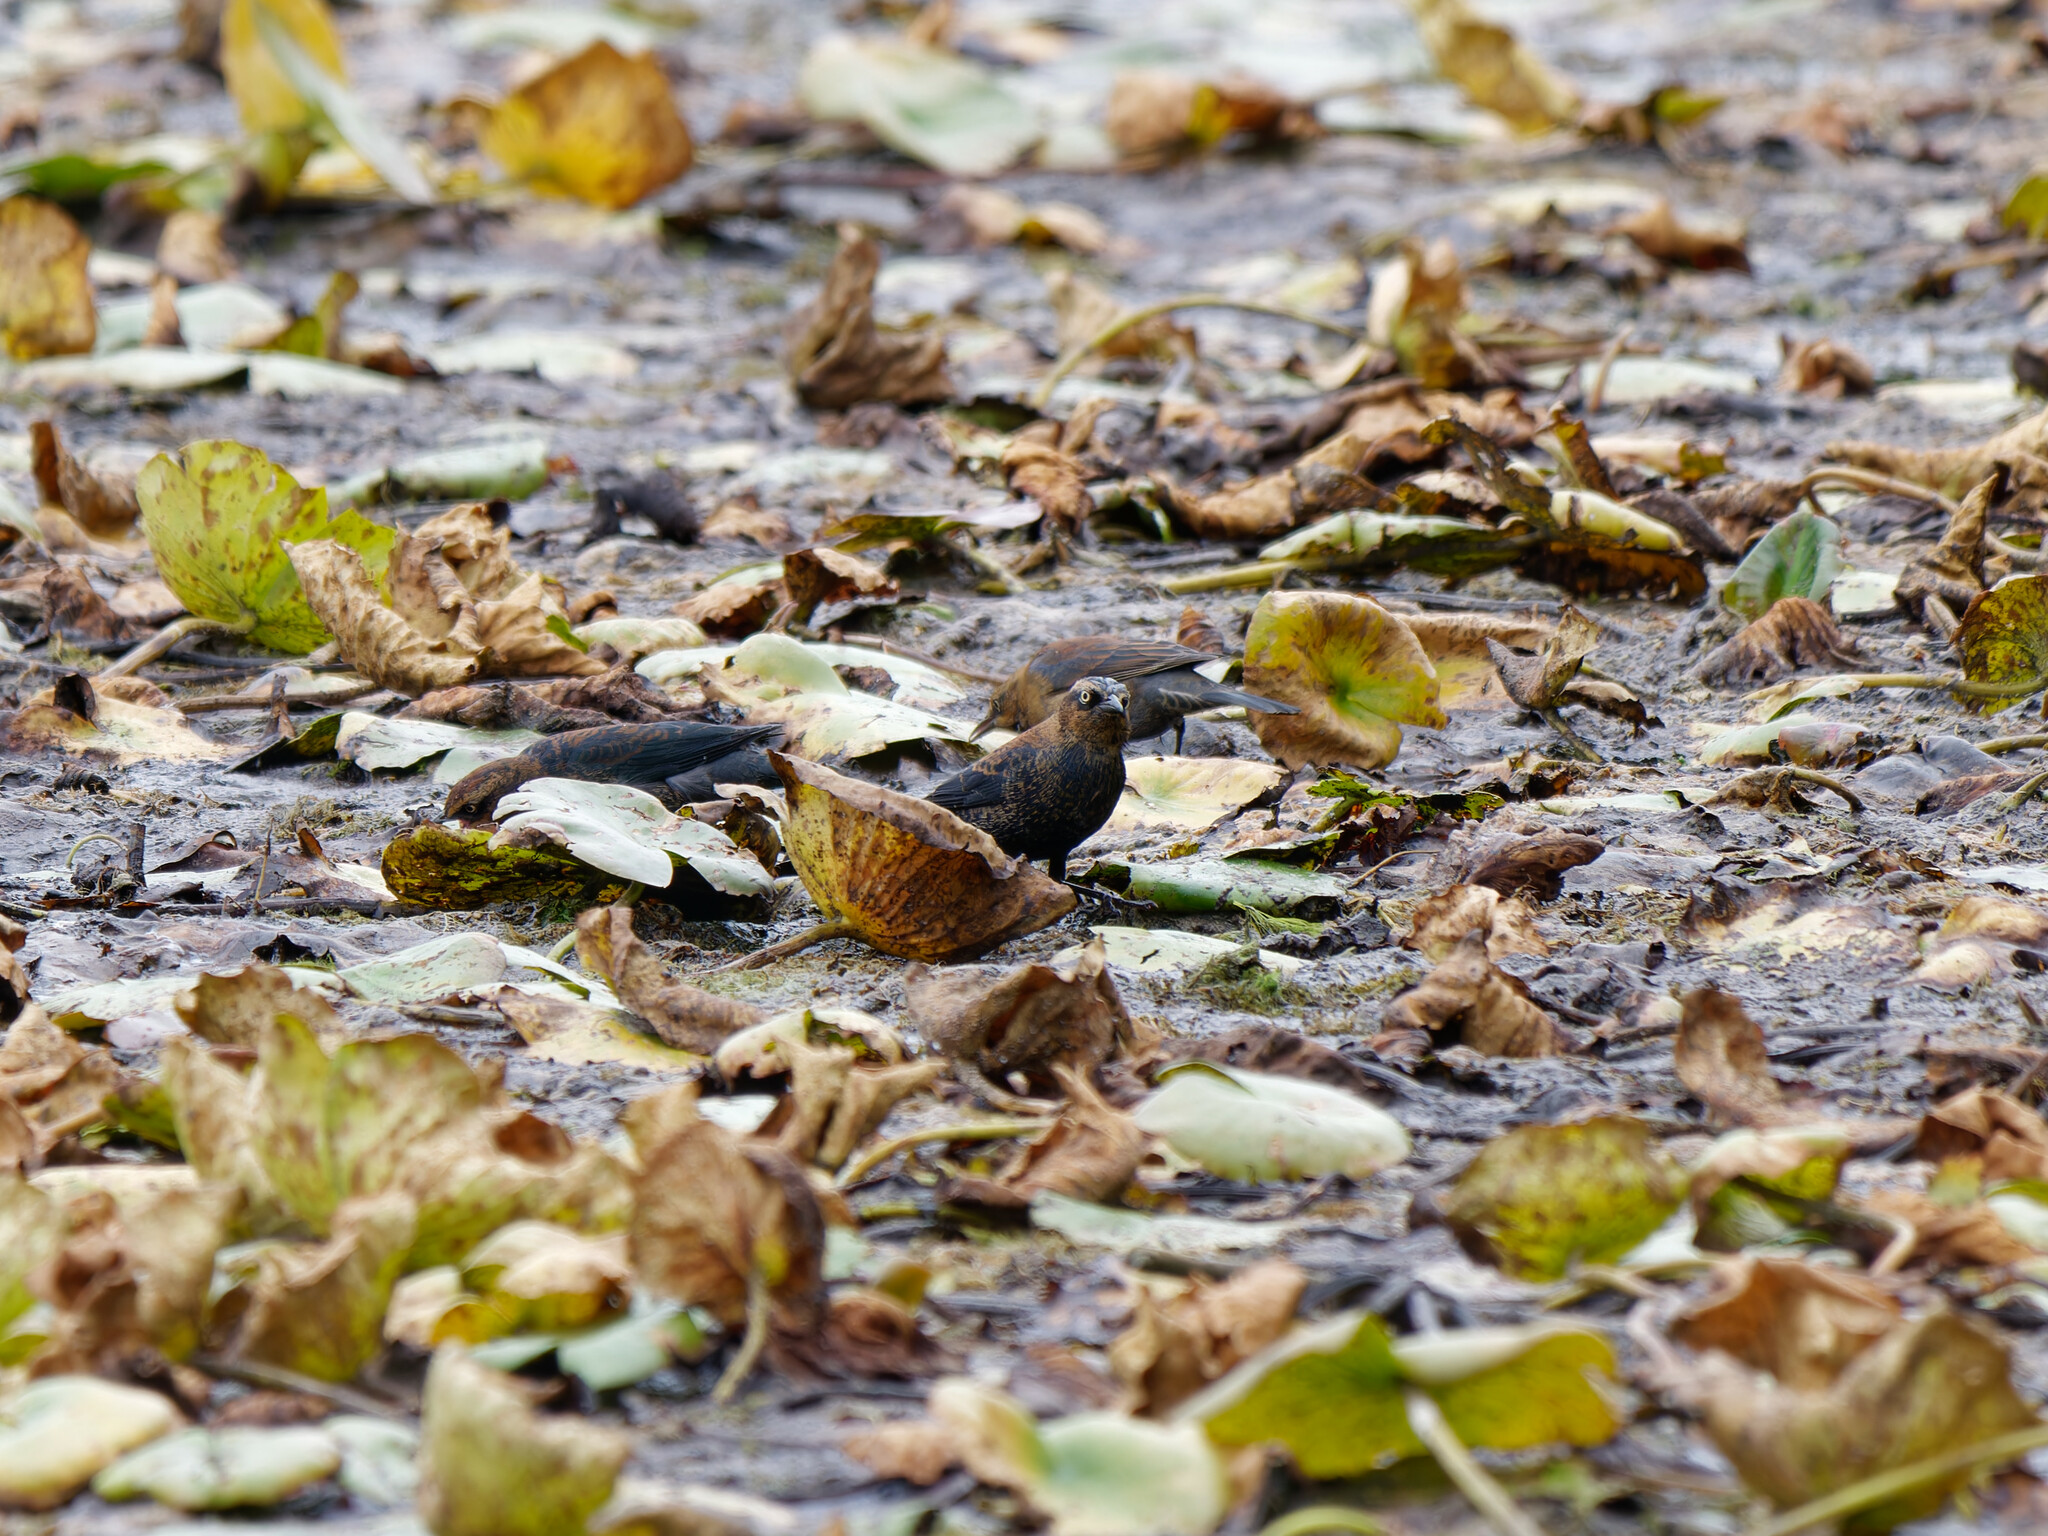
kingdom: Animalia
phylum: Chordata
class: Aves
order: Passeriformes
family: Icteridae
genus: Euphagus
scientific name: Euphagus carolinus
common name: Rusty blackbird
